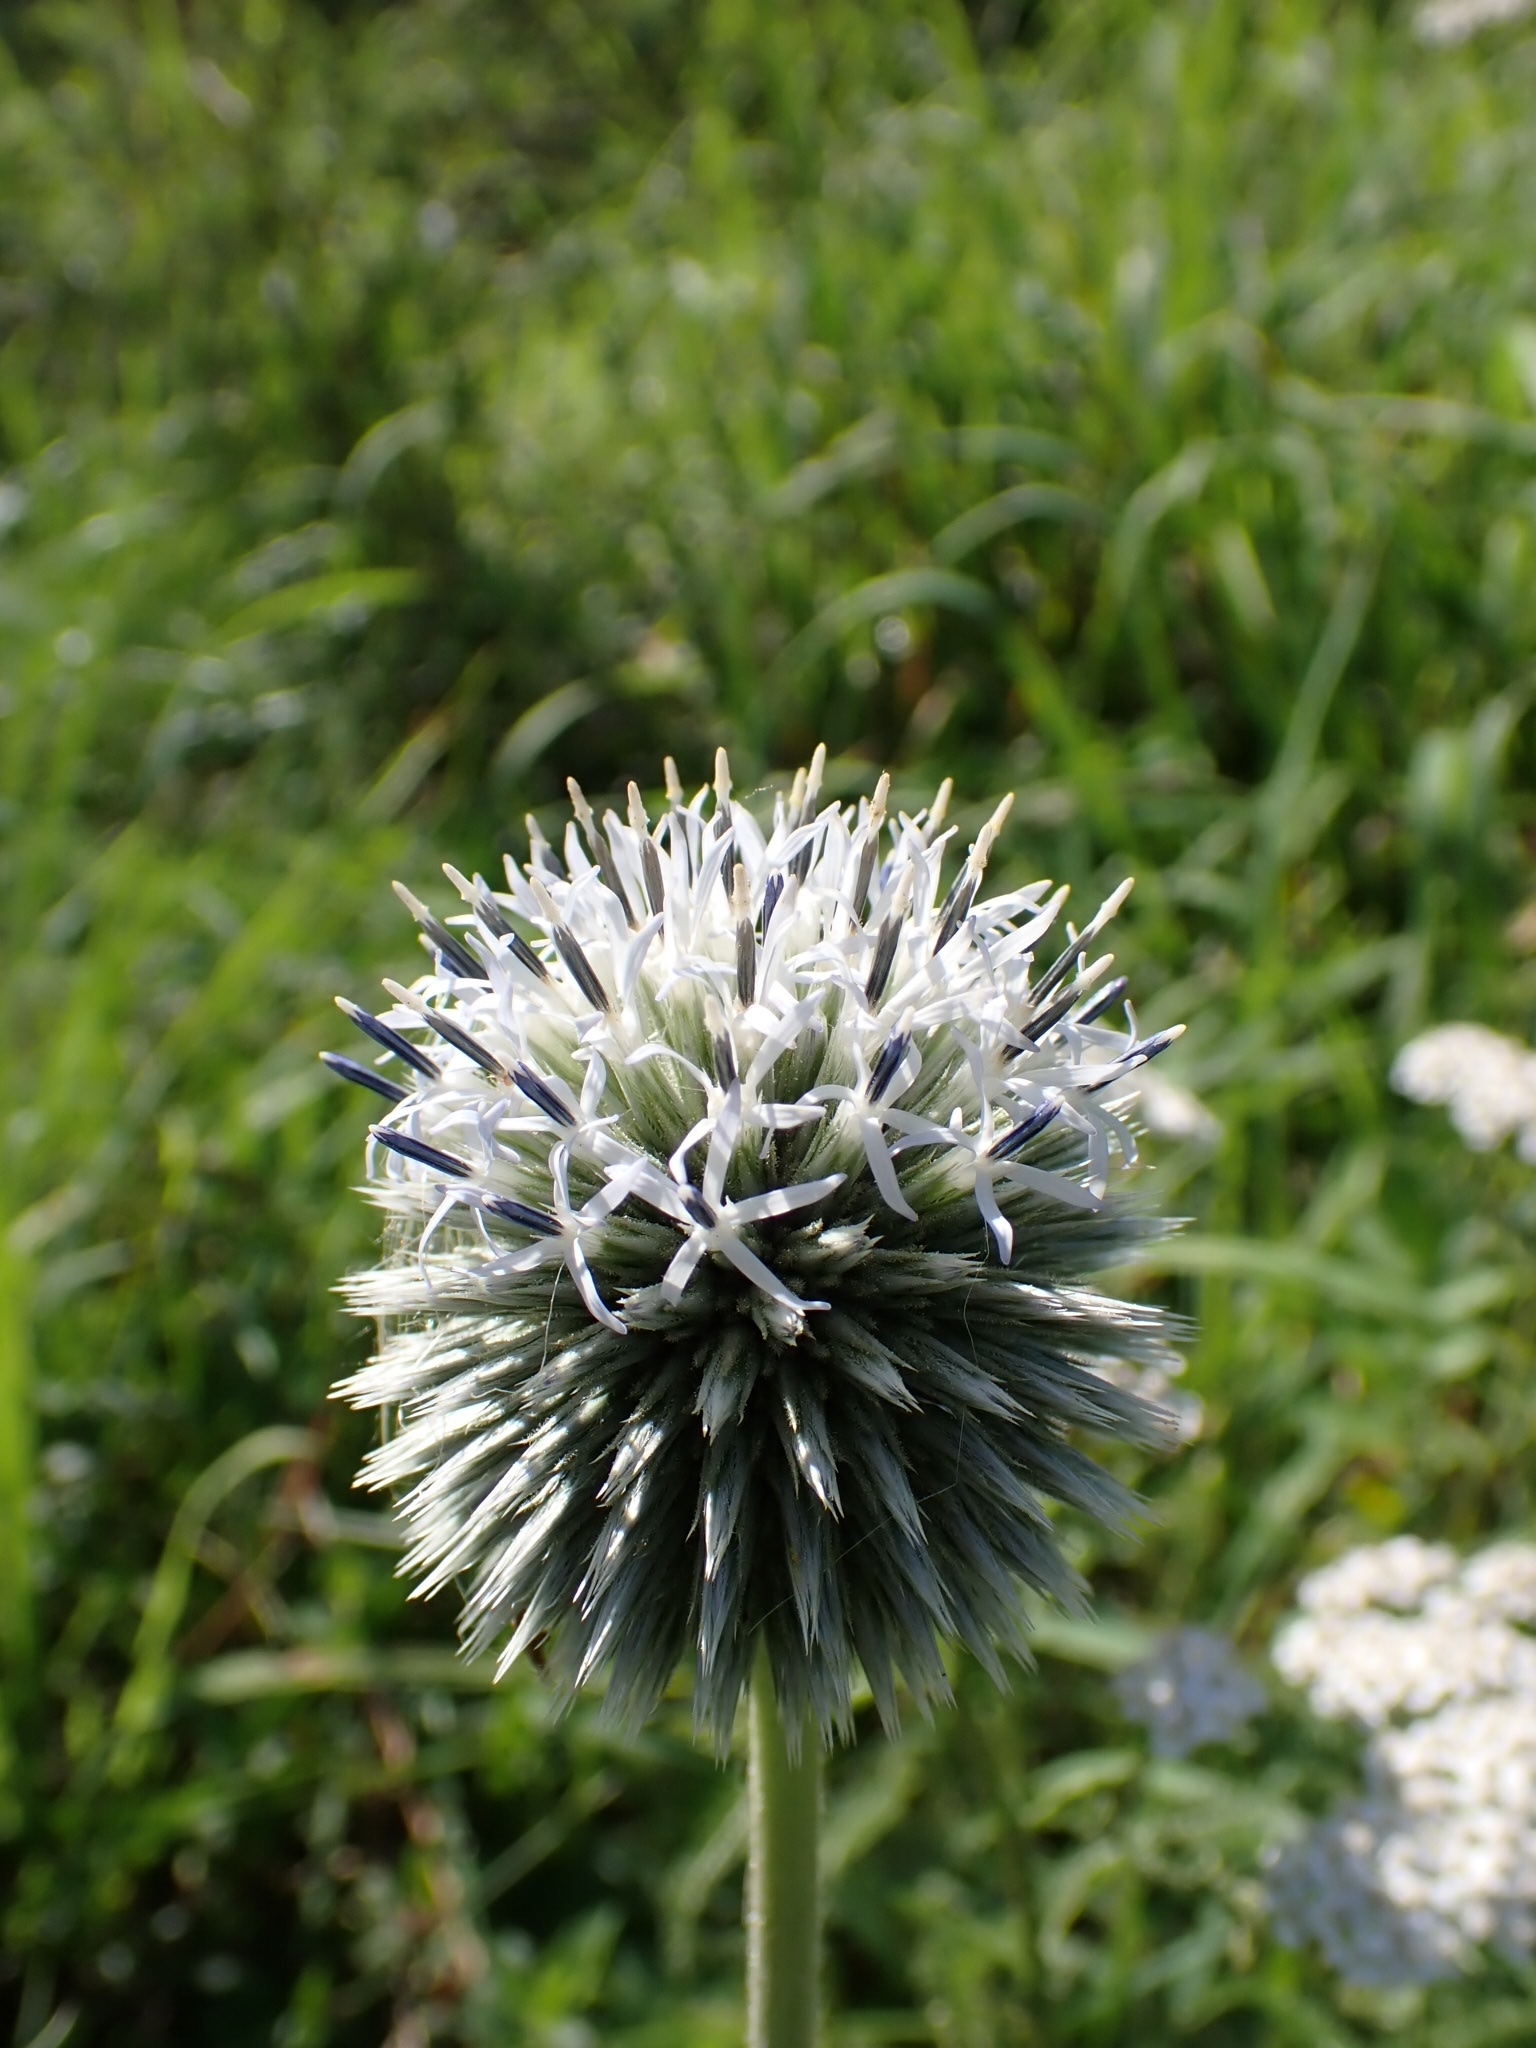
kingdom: Plantae
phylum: Tracheophyta
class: Magnoliopsida
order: Asterales
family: Asteraceae
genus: Echinops
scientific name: Echinops sphaerocephalus
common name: Glandular globe-thistle
